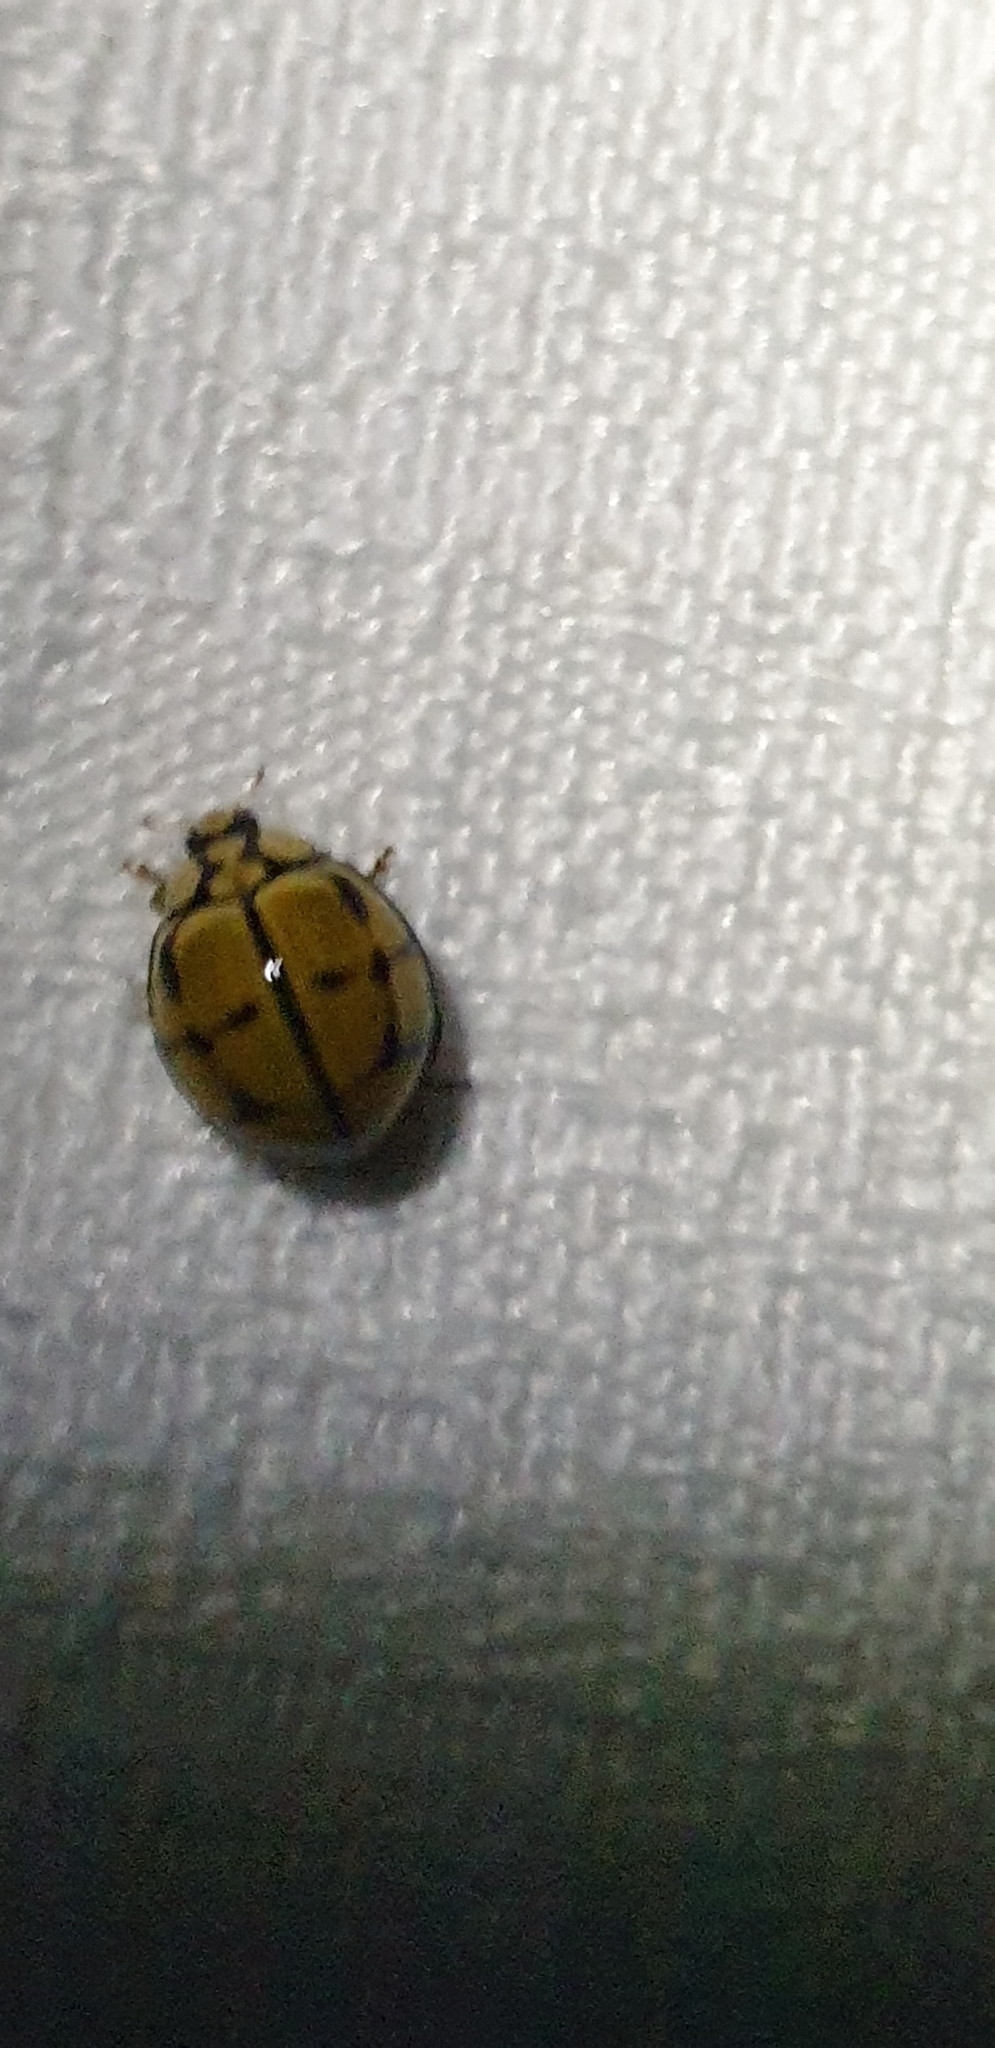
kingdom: Animalia
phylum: Arthropoda
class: Insecta
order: Coleoptera
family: Coccinellidae
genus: Harmonia
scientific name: Harmonia
